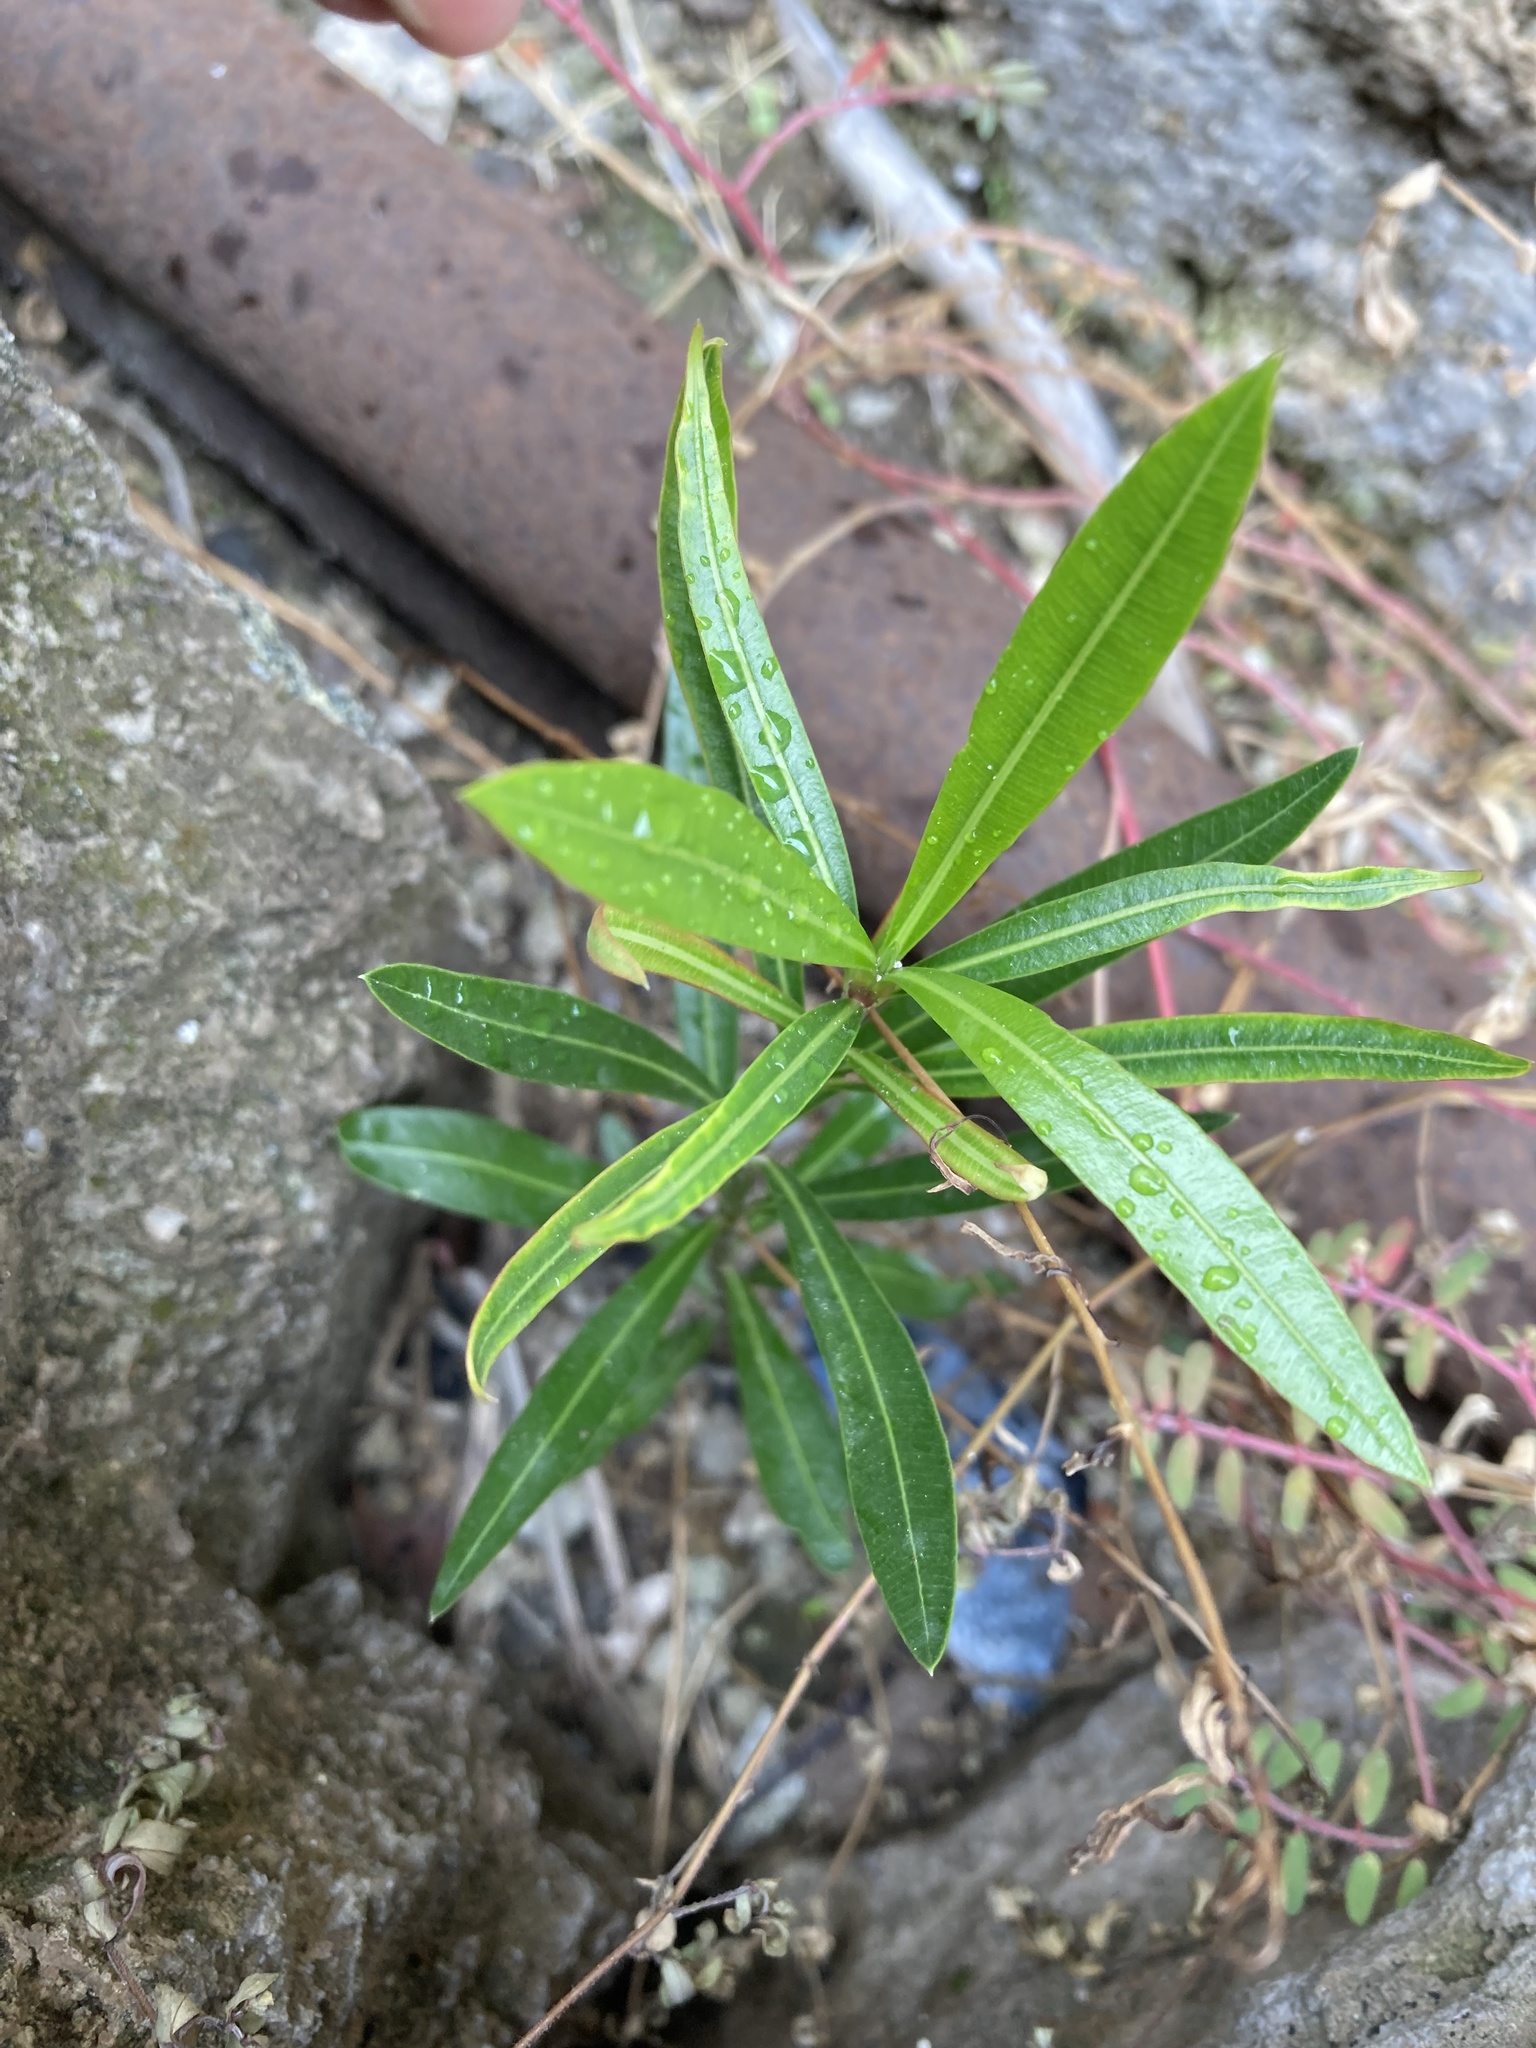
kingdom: Plantae
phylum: Tracheophyta
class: Magnoliopsida
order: Gentianales
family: Apocynaceae
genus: Nerium
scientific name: Nerium oleander
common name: Oleander
